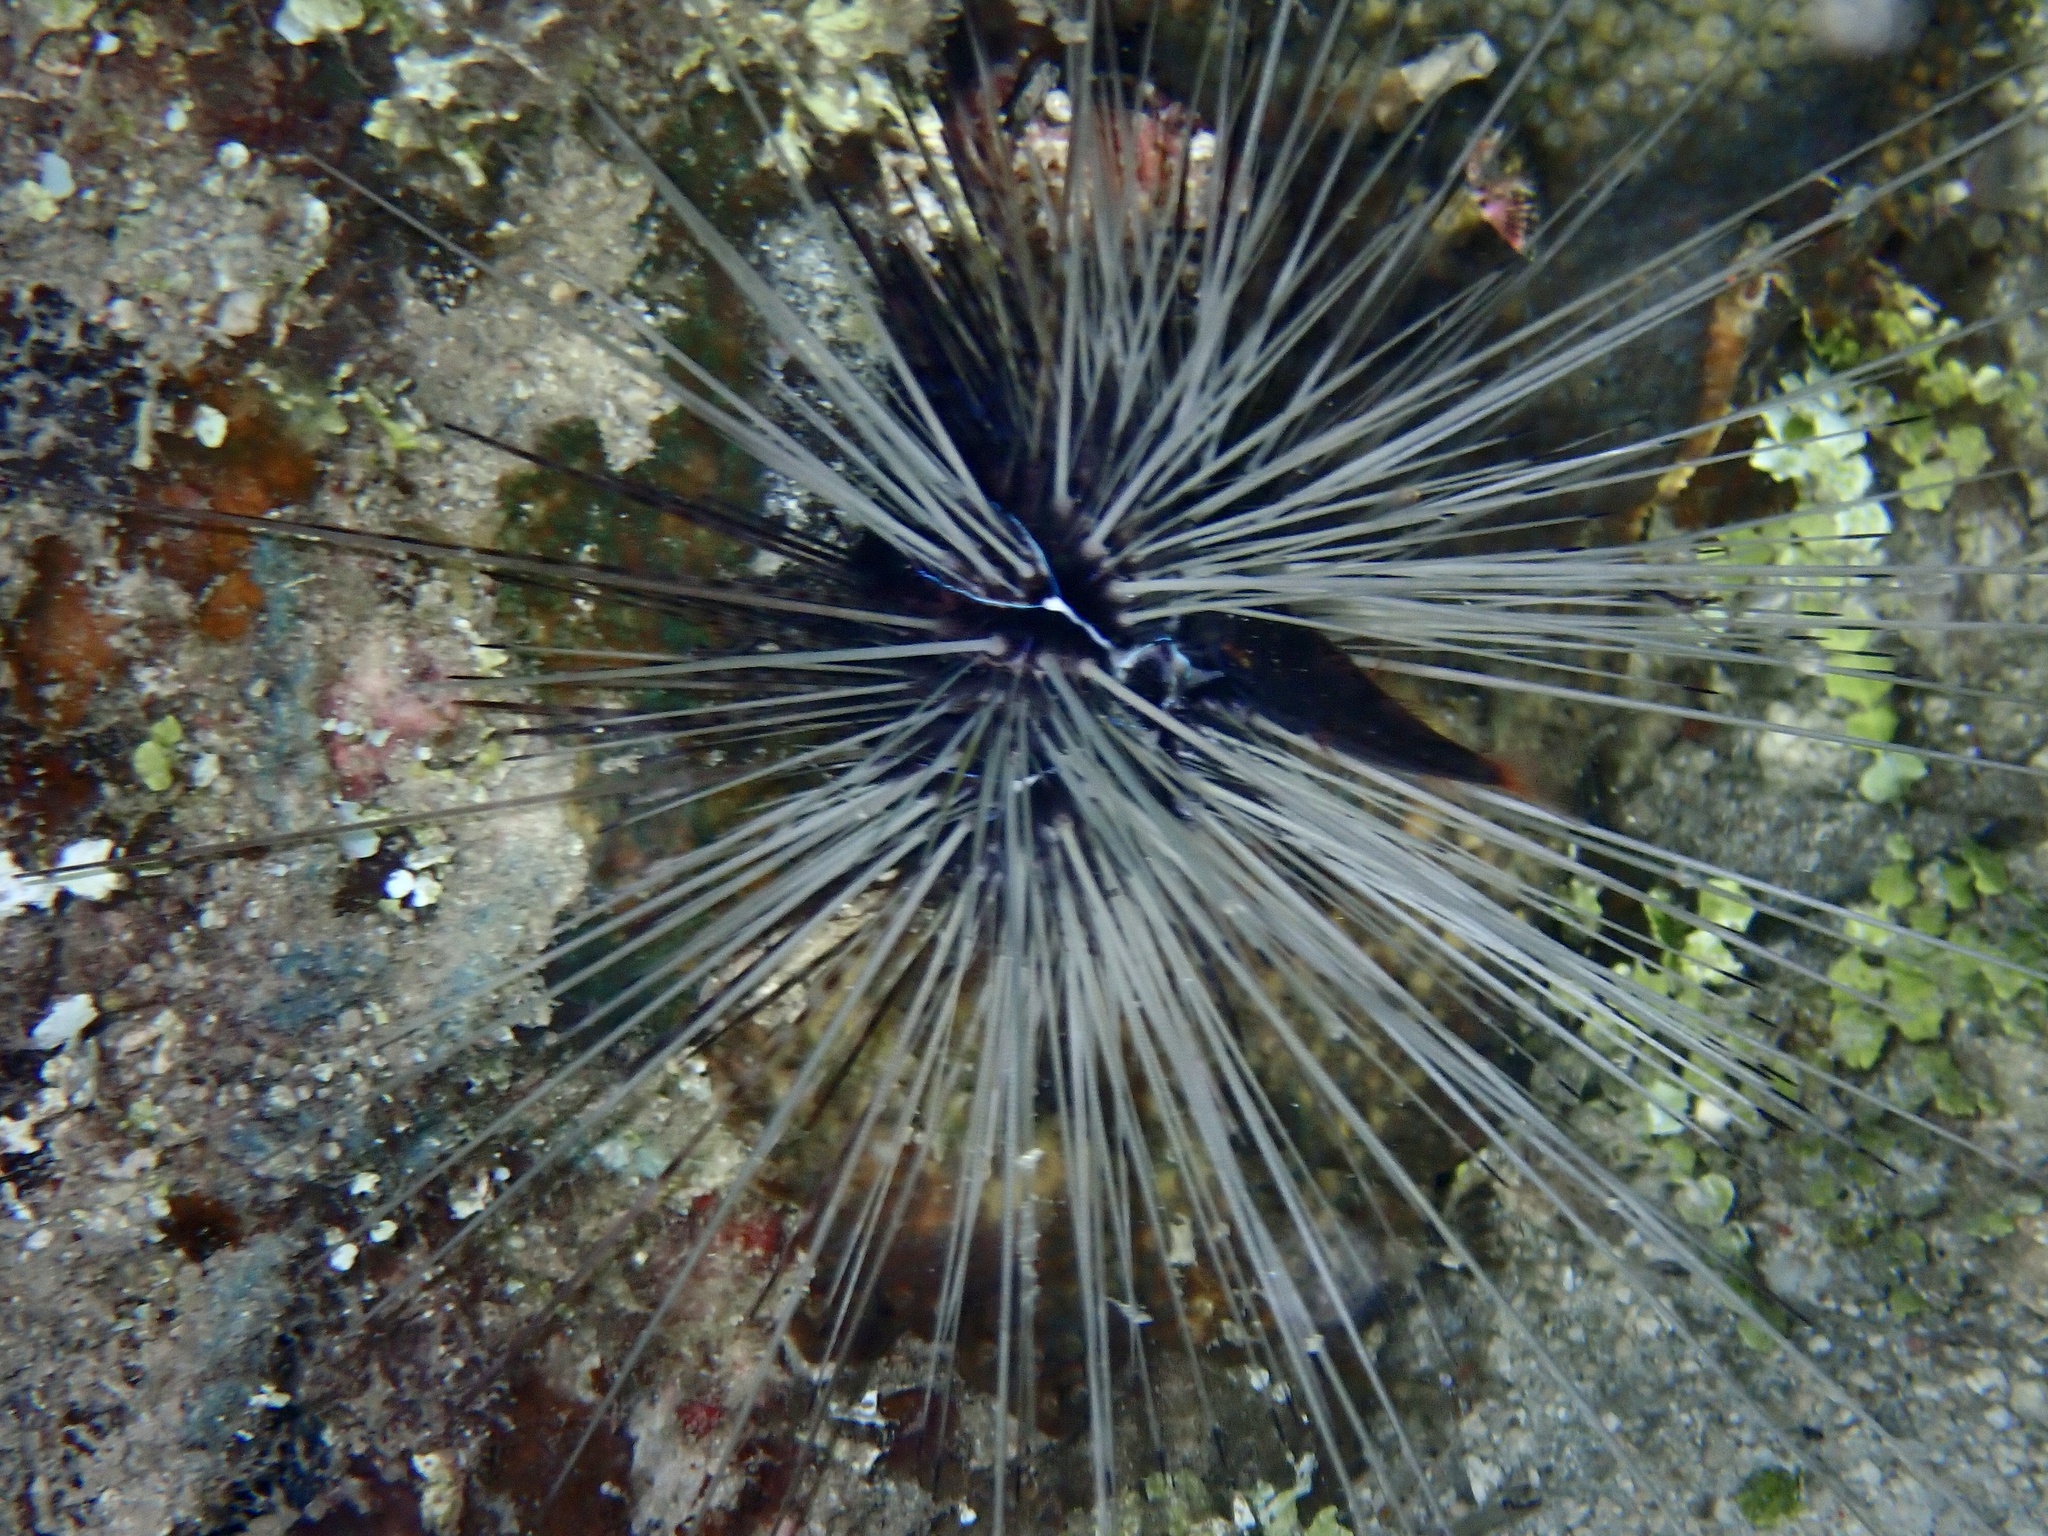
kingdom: Animalia
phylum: Echinodermata
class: Echinoidea
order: Diadematoida
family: Diadematidae
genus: Diadema
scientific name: Diadema savignyi
